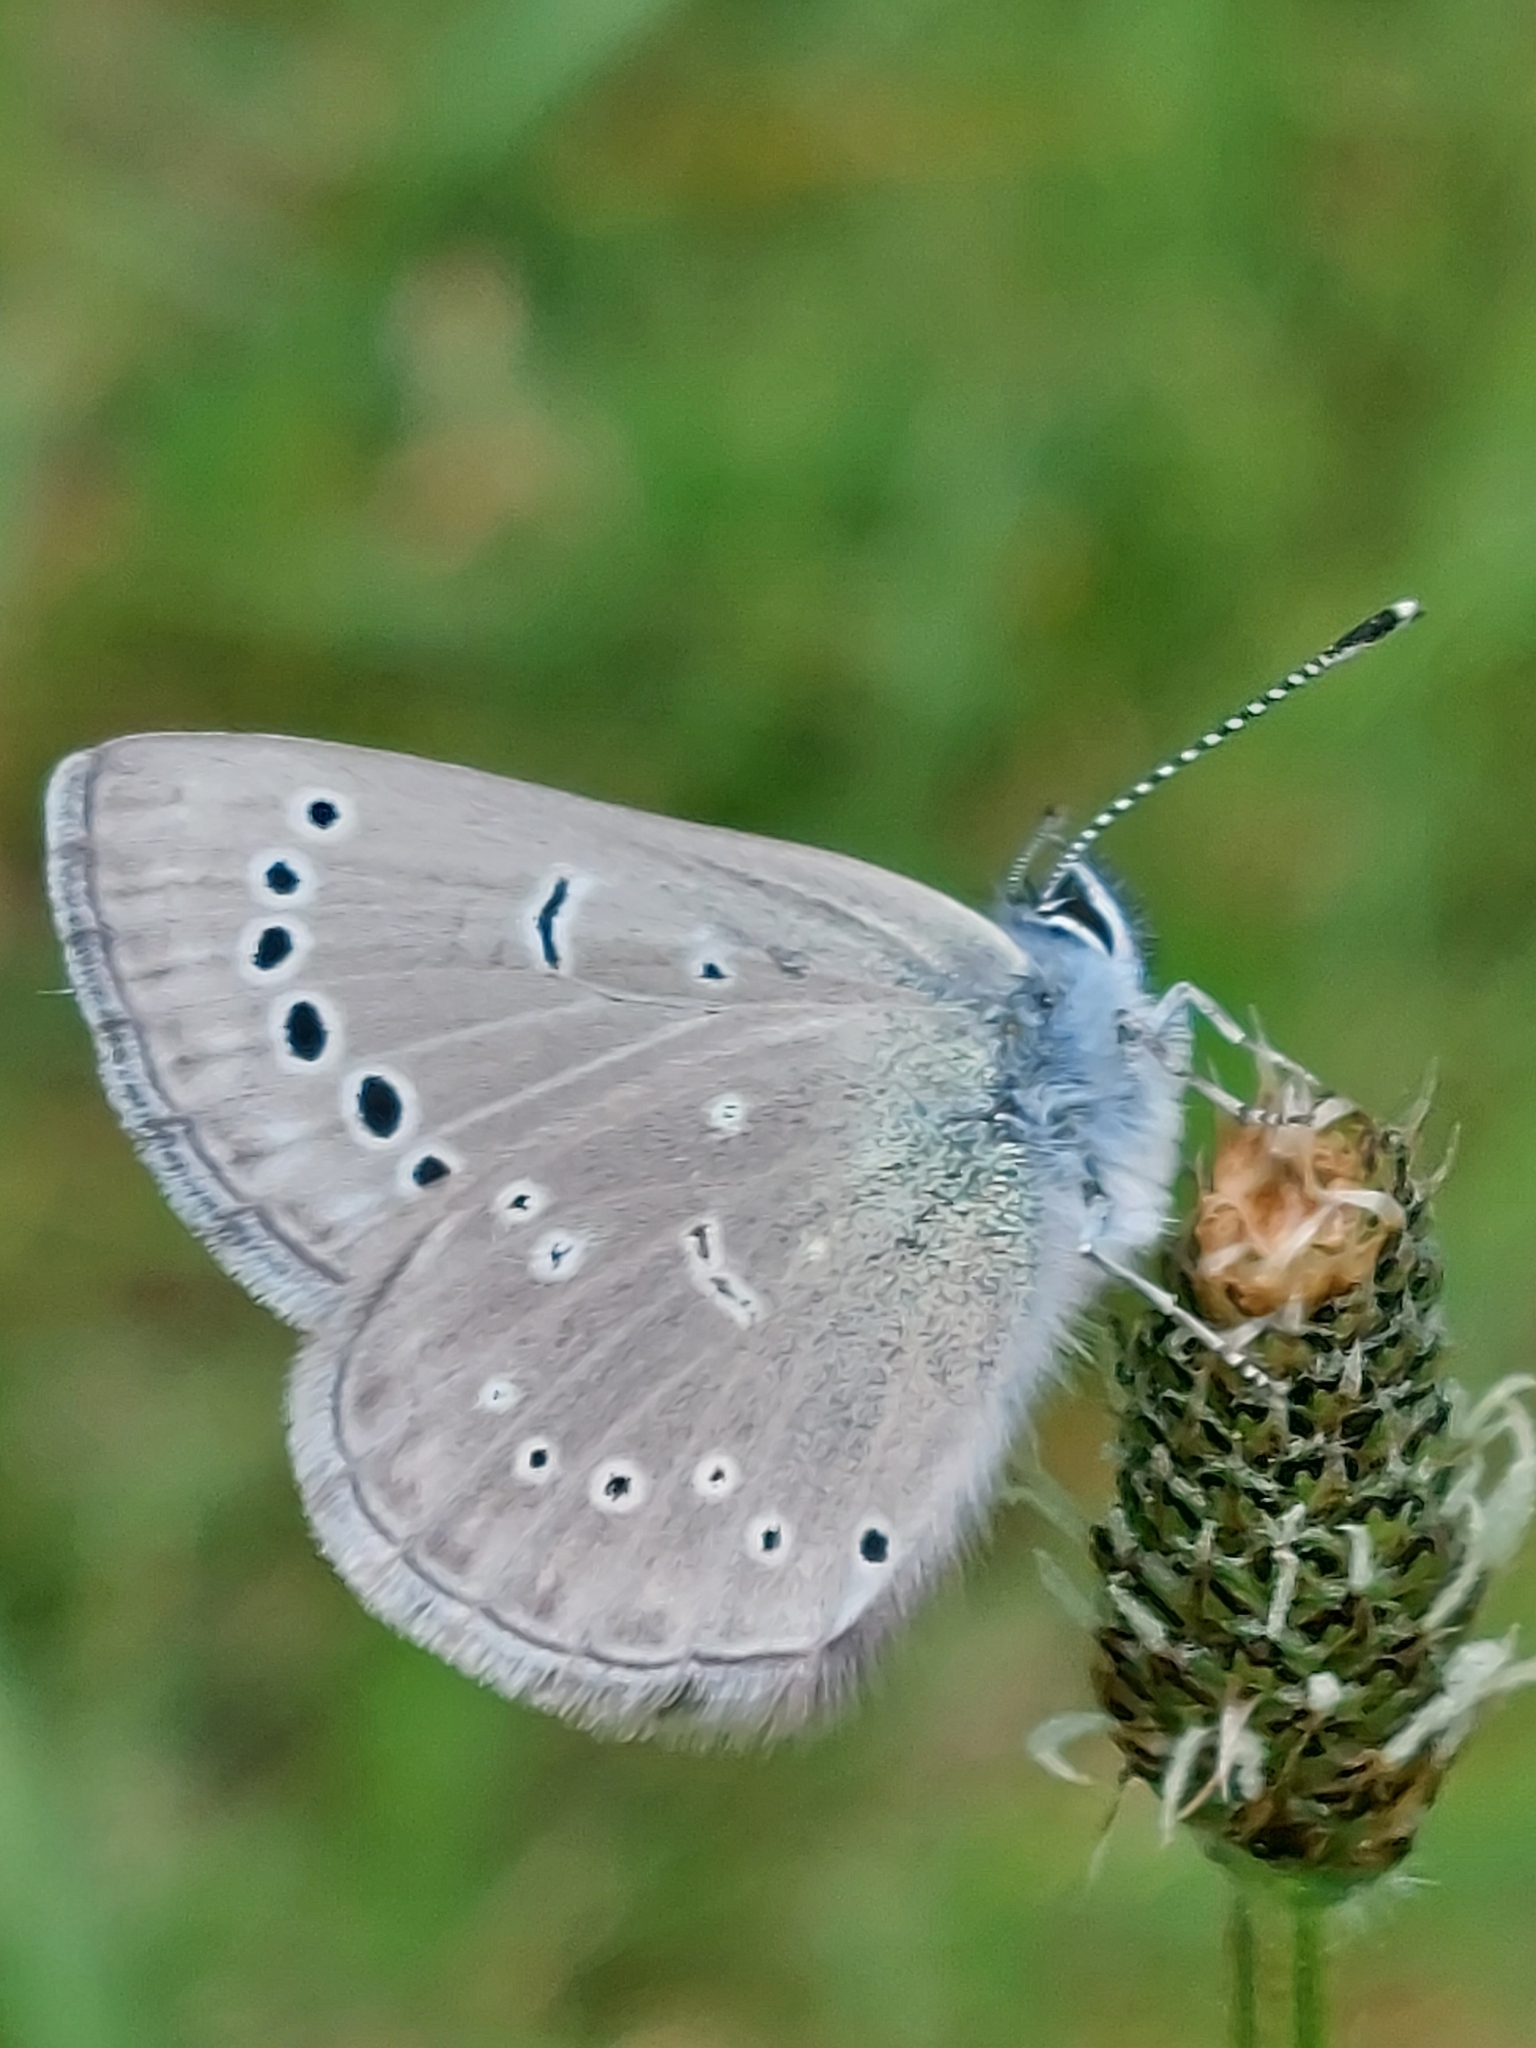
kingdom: Animalia
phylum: Arthropoda
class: Insecta
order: Lepidoptera
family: Lycaenidae
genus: Glaucopsyche
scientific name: Glaucopsyche lygdamus
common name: Silvery blue
